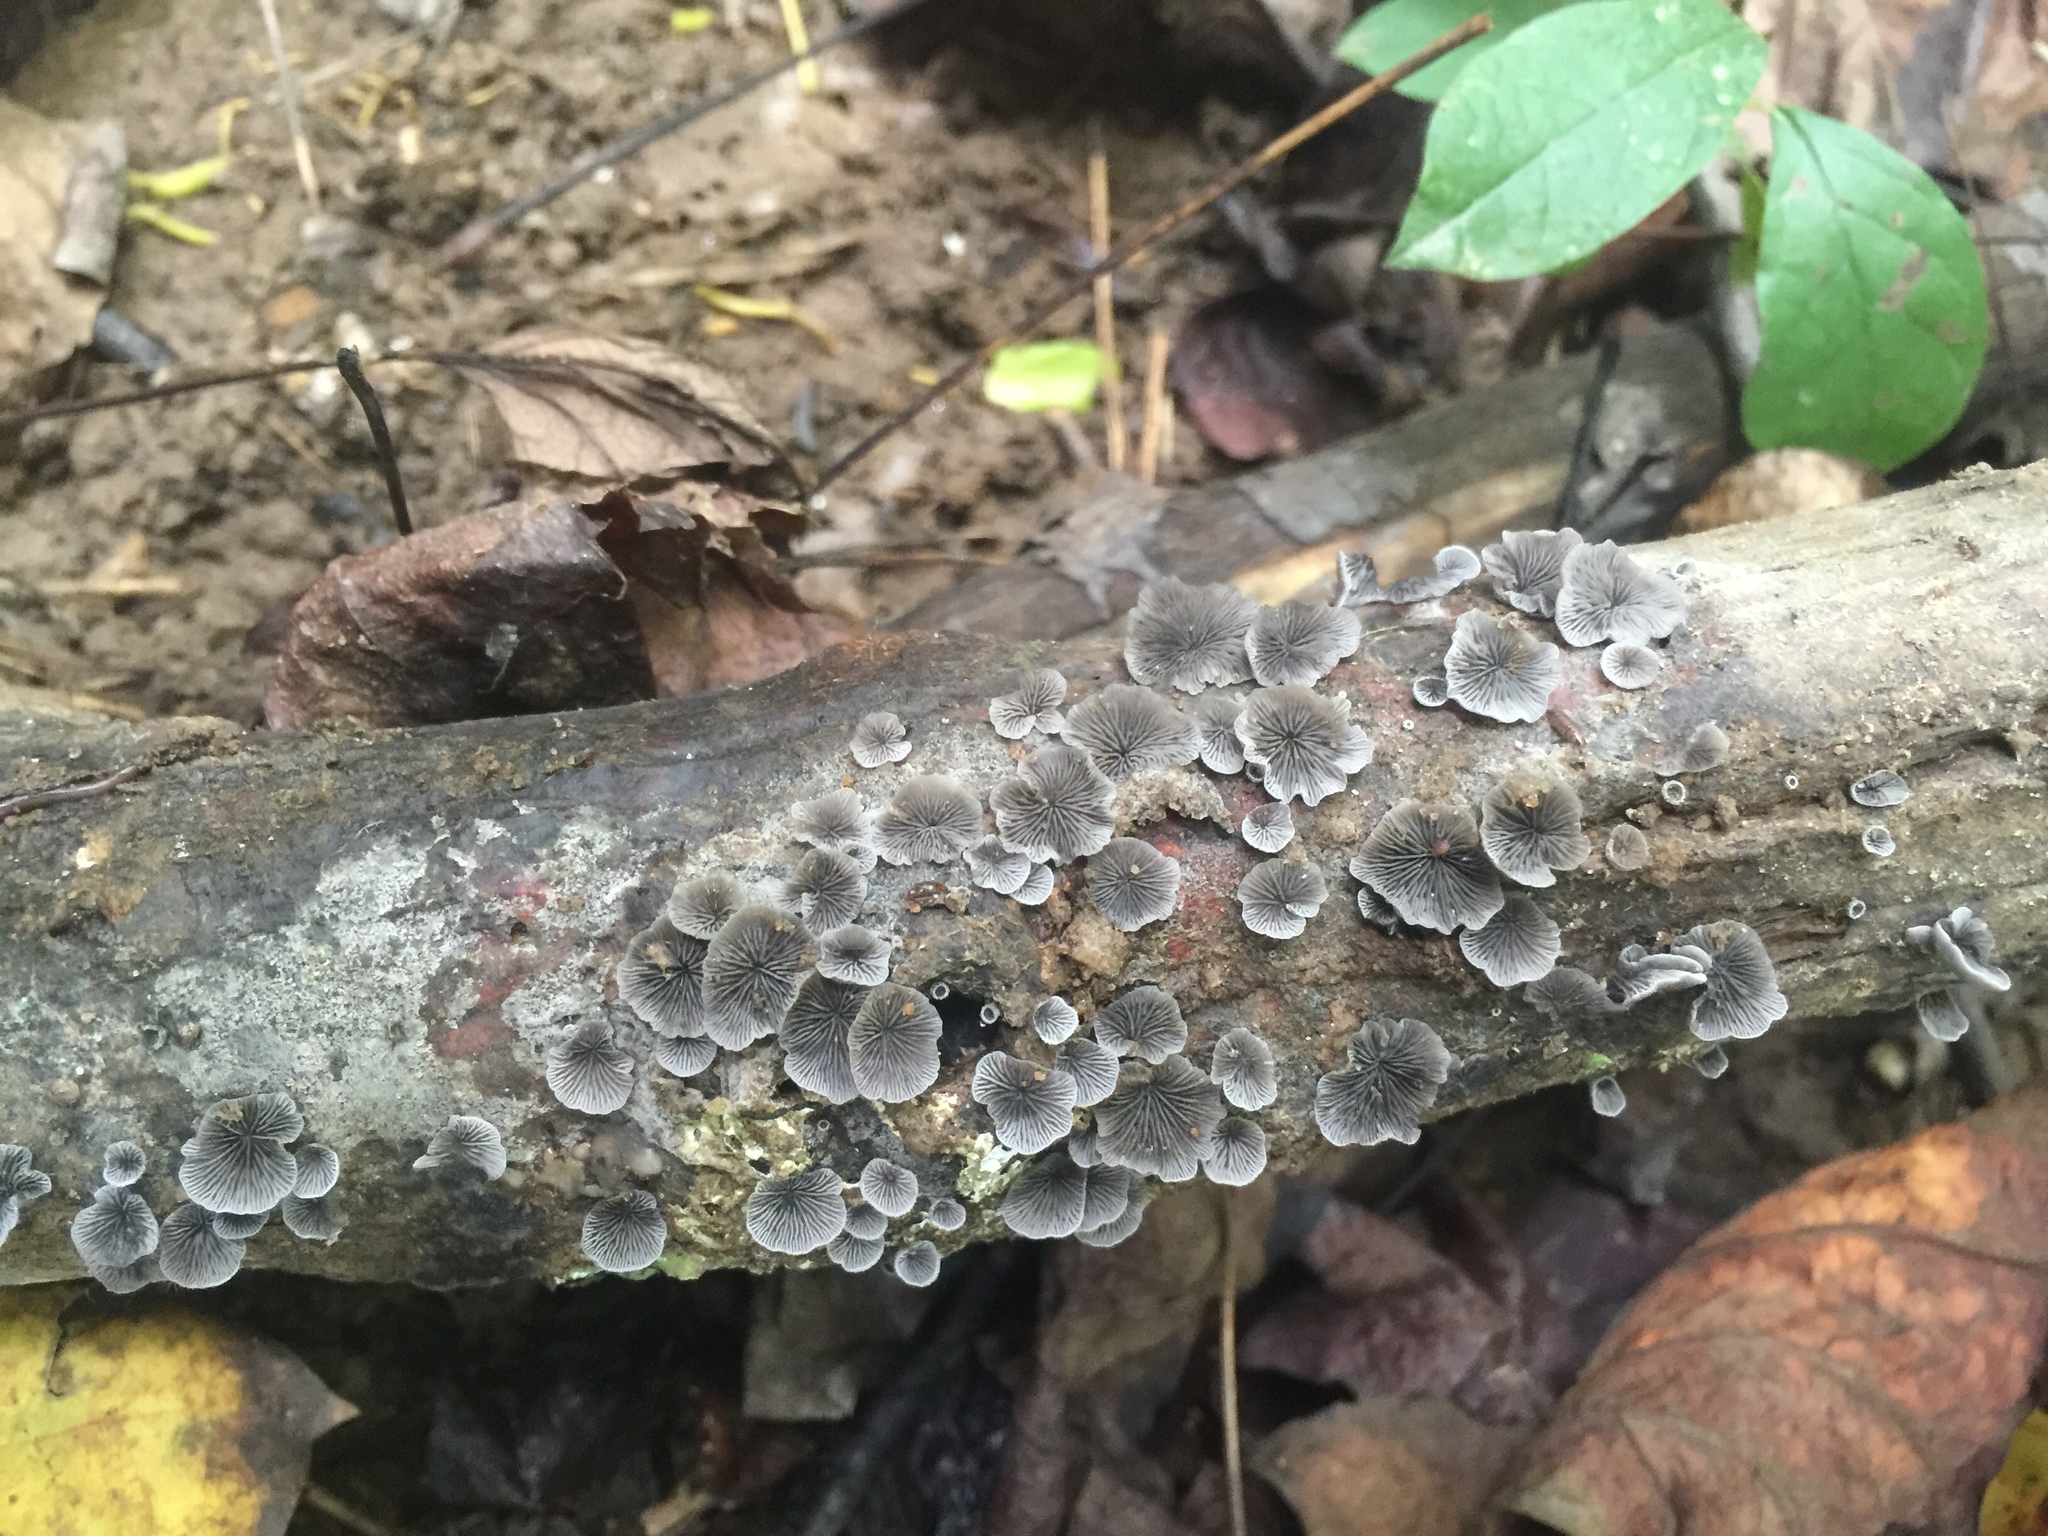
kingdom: Fungi
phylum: Basidiomycota
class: Agaricomycetes
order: Agaricales
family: Pleurotaceae
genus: Resupinatus
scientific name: Resupinatus applicatus
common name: Smoked oysterling
